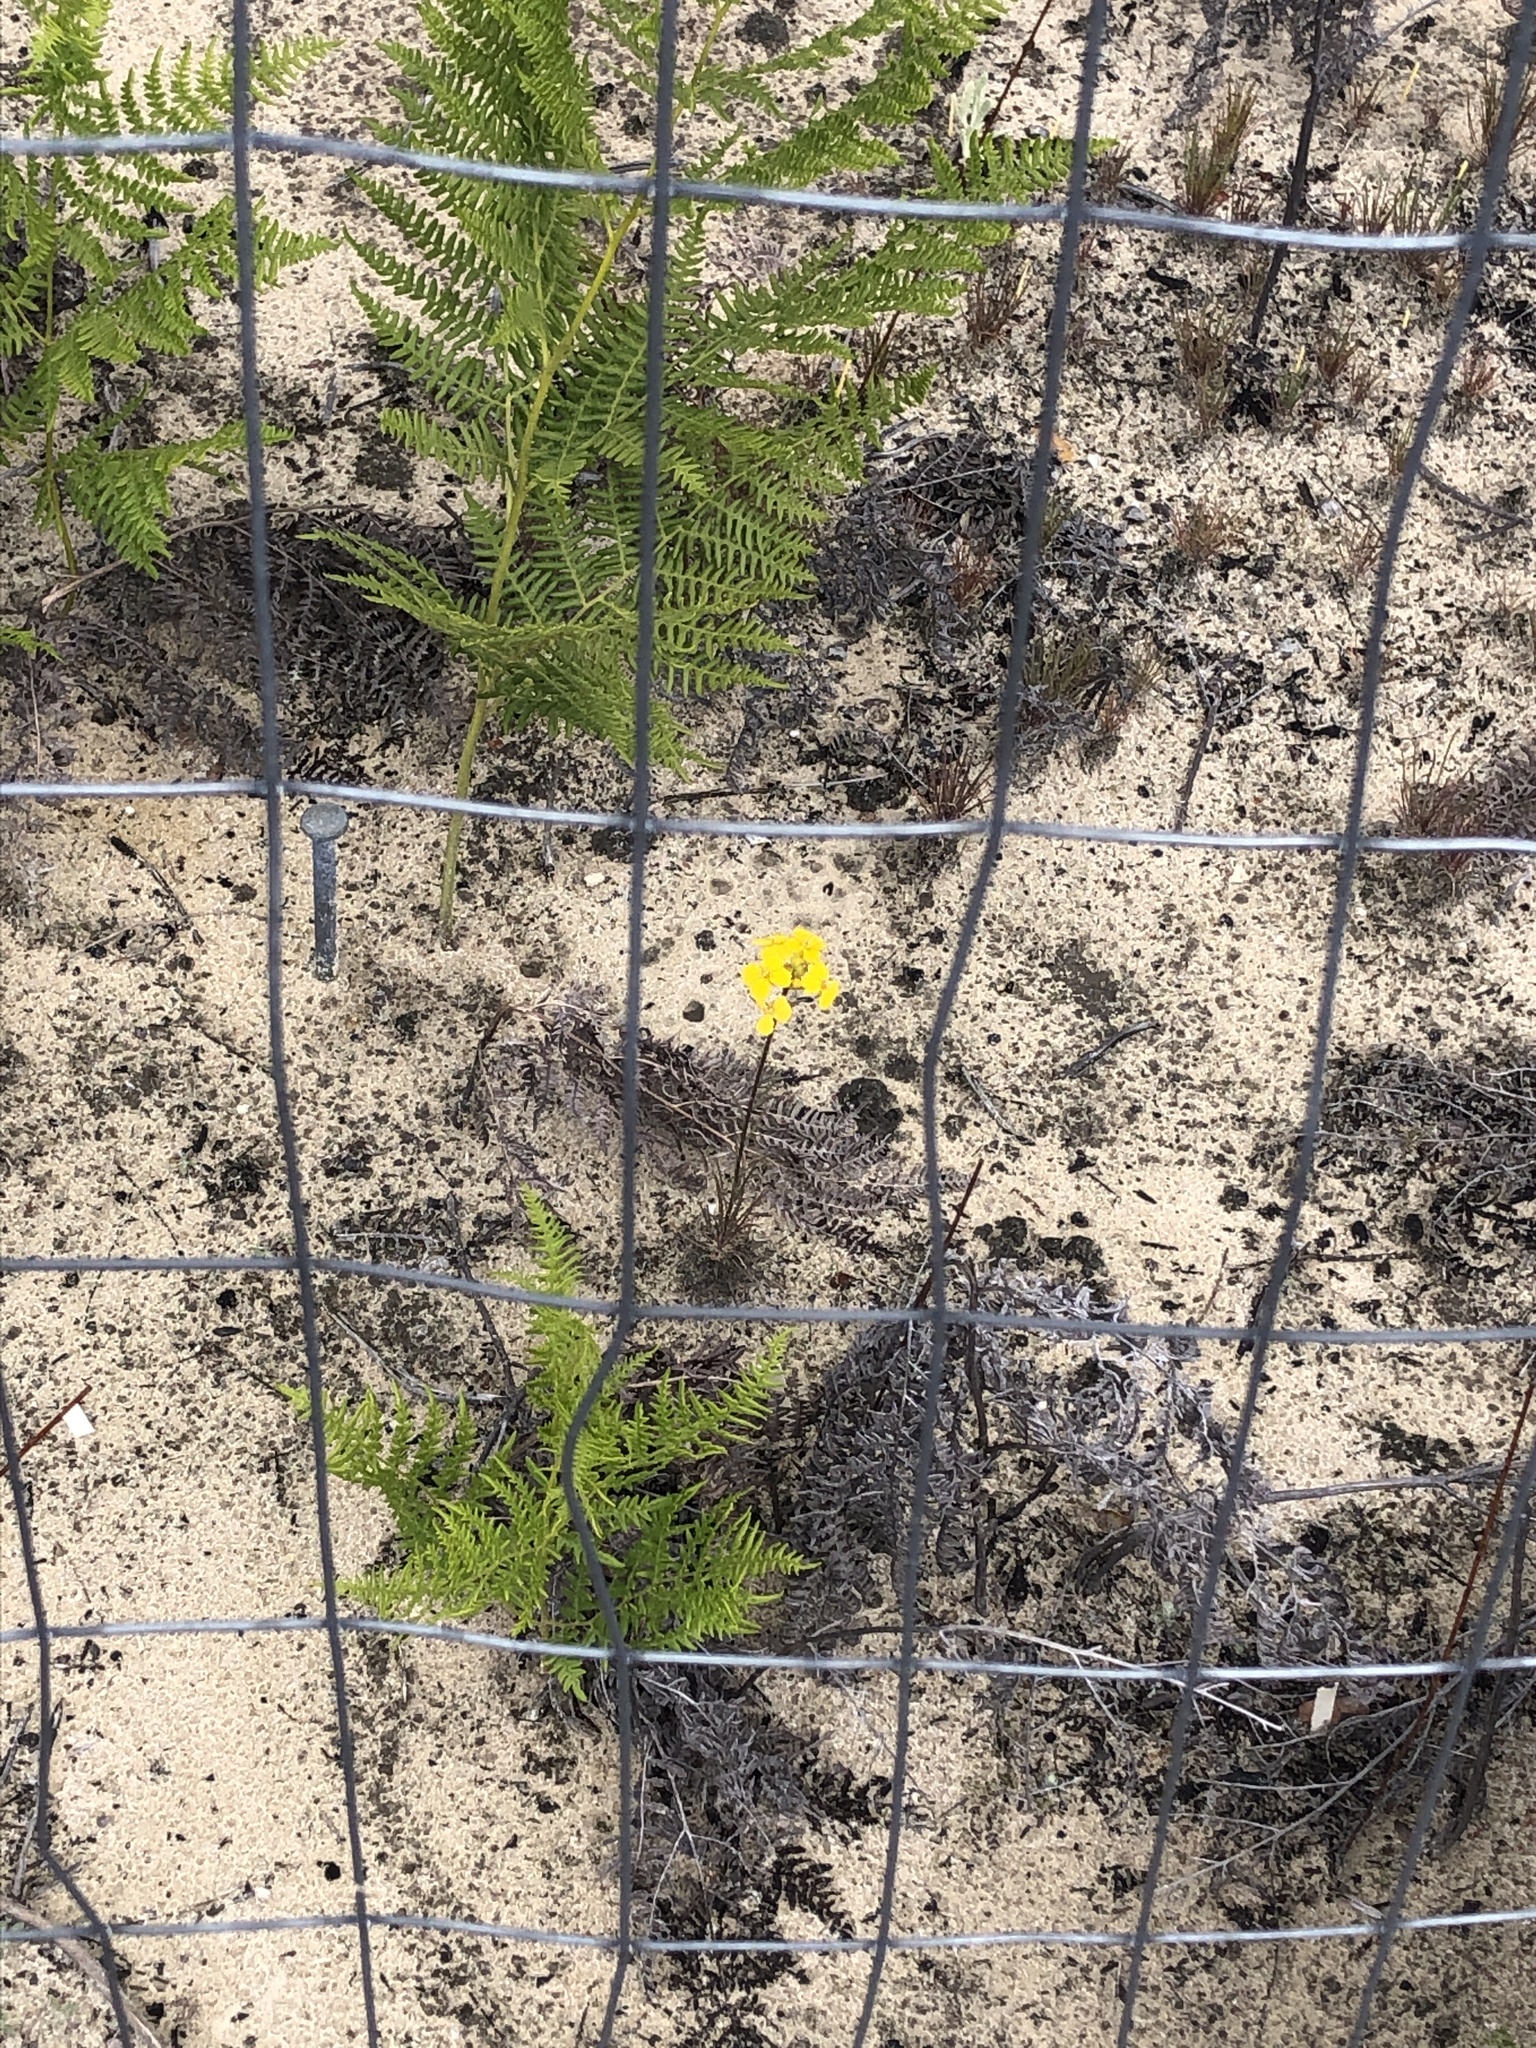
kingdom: Plantae
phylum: Tracheophyta
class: Magnoliopsida
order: Brassicales
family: Brassicaceae
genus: Erysimum
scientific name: Erysimum teretifolium
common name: Ben lomond wallflower
